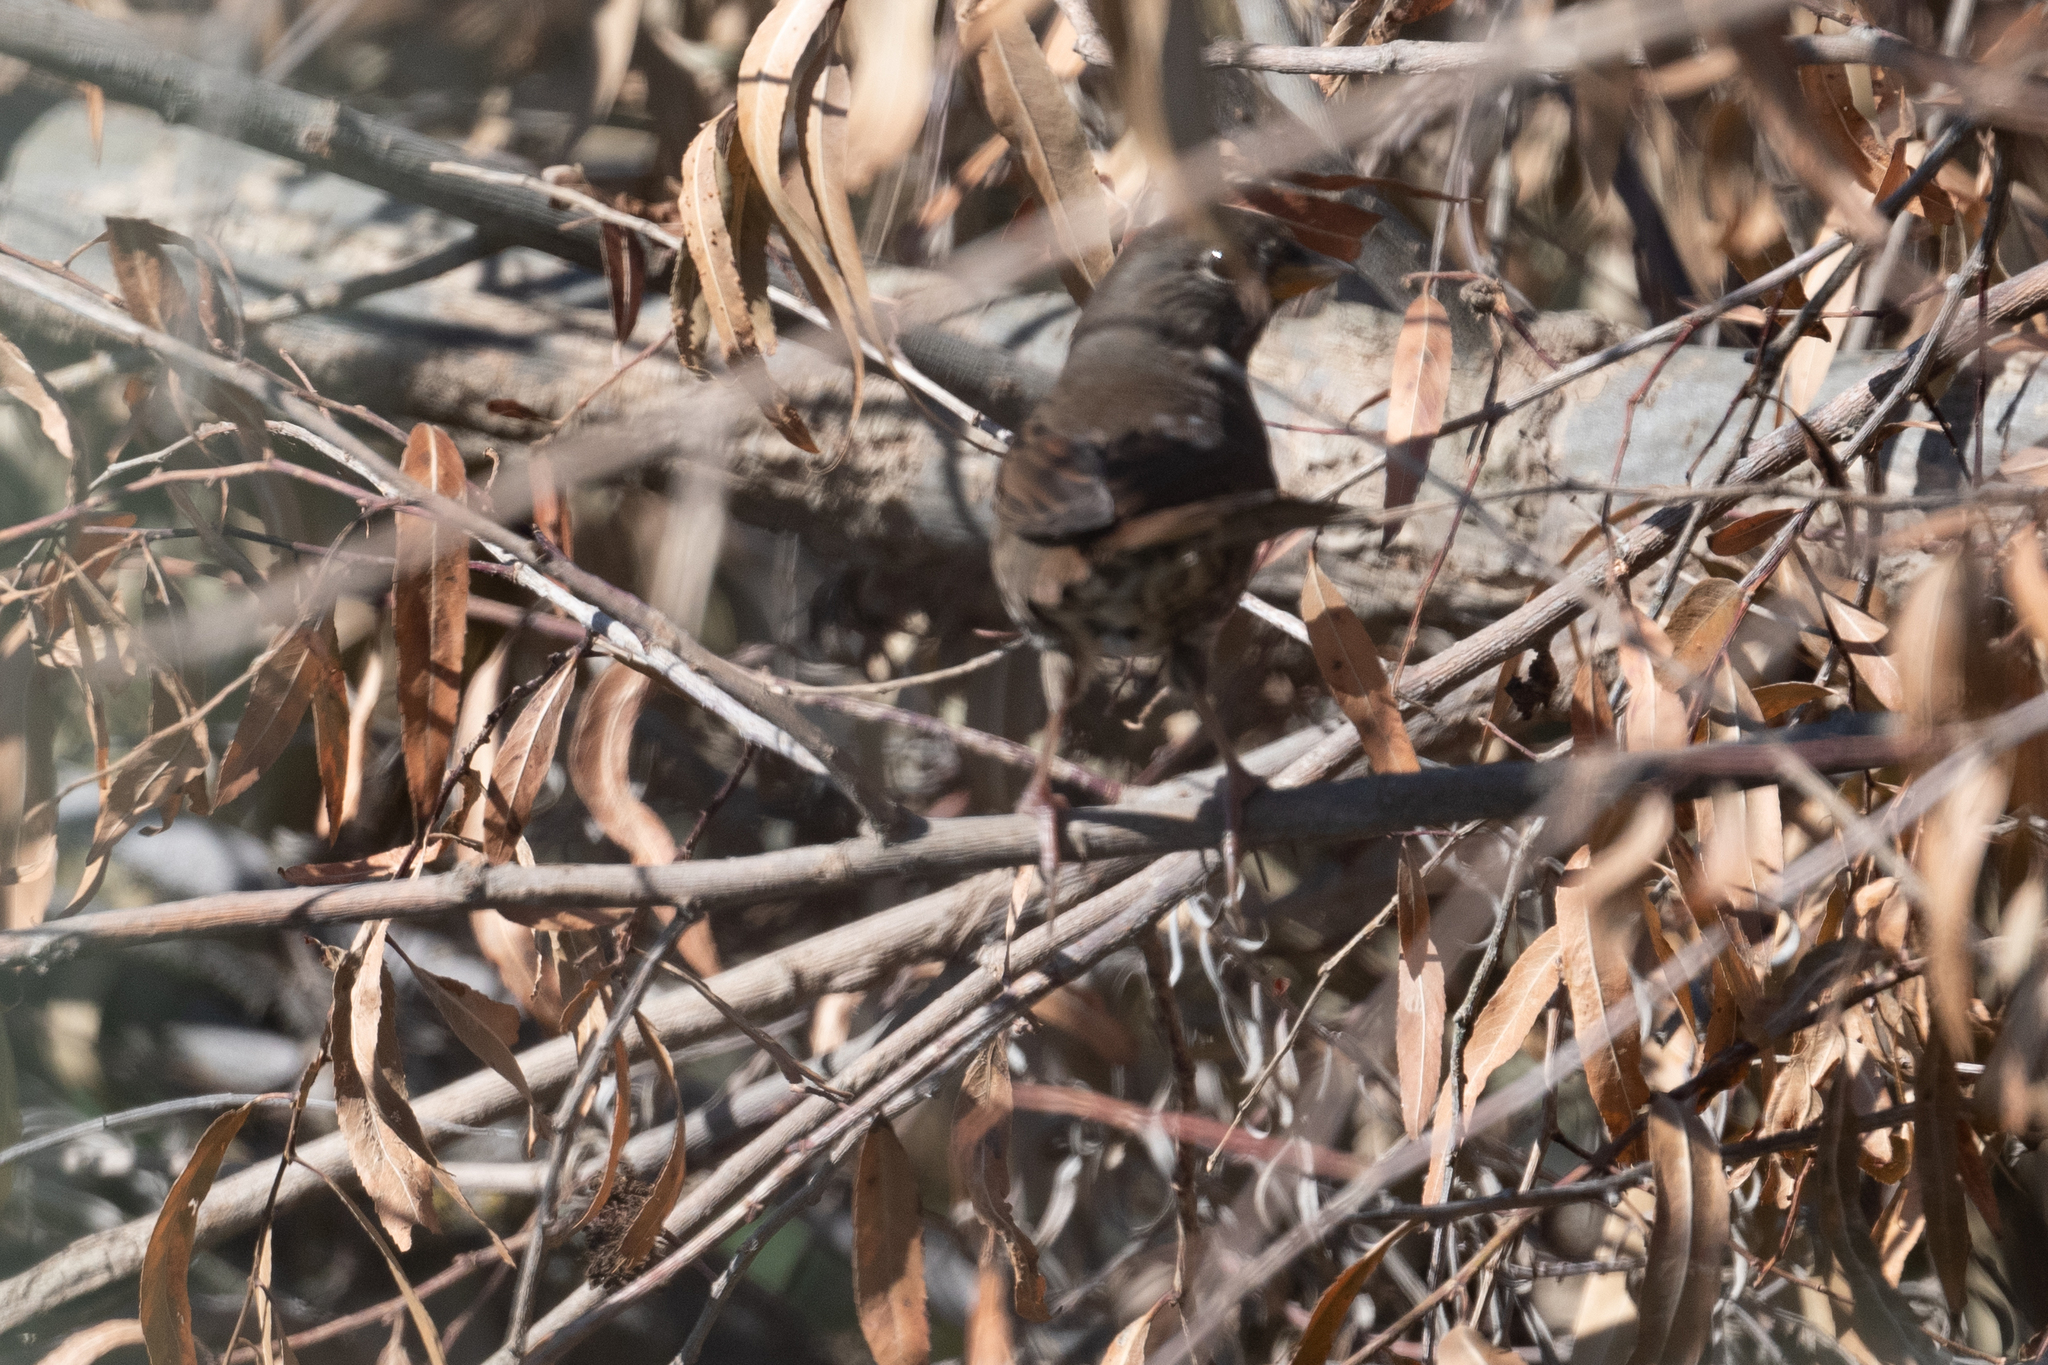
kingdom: Animalia
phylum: Chordata
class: Aves
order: Passeriformes
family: Passerellidae
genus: Passerella
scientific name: Passerella iliaca
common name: Fox sparrow
